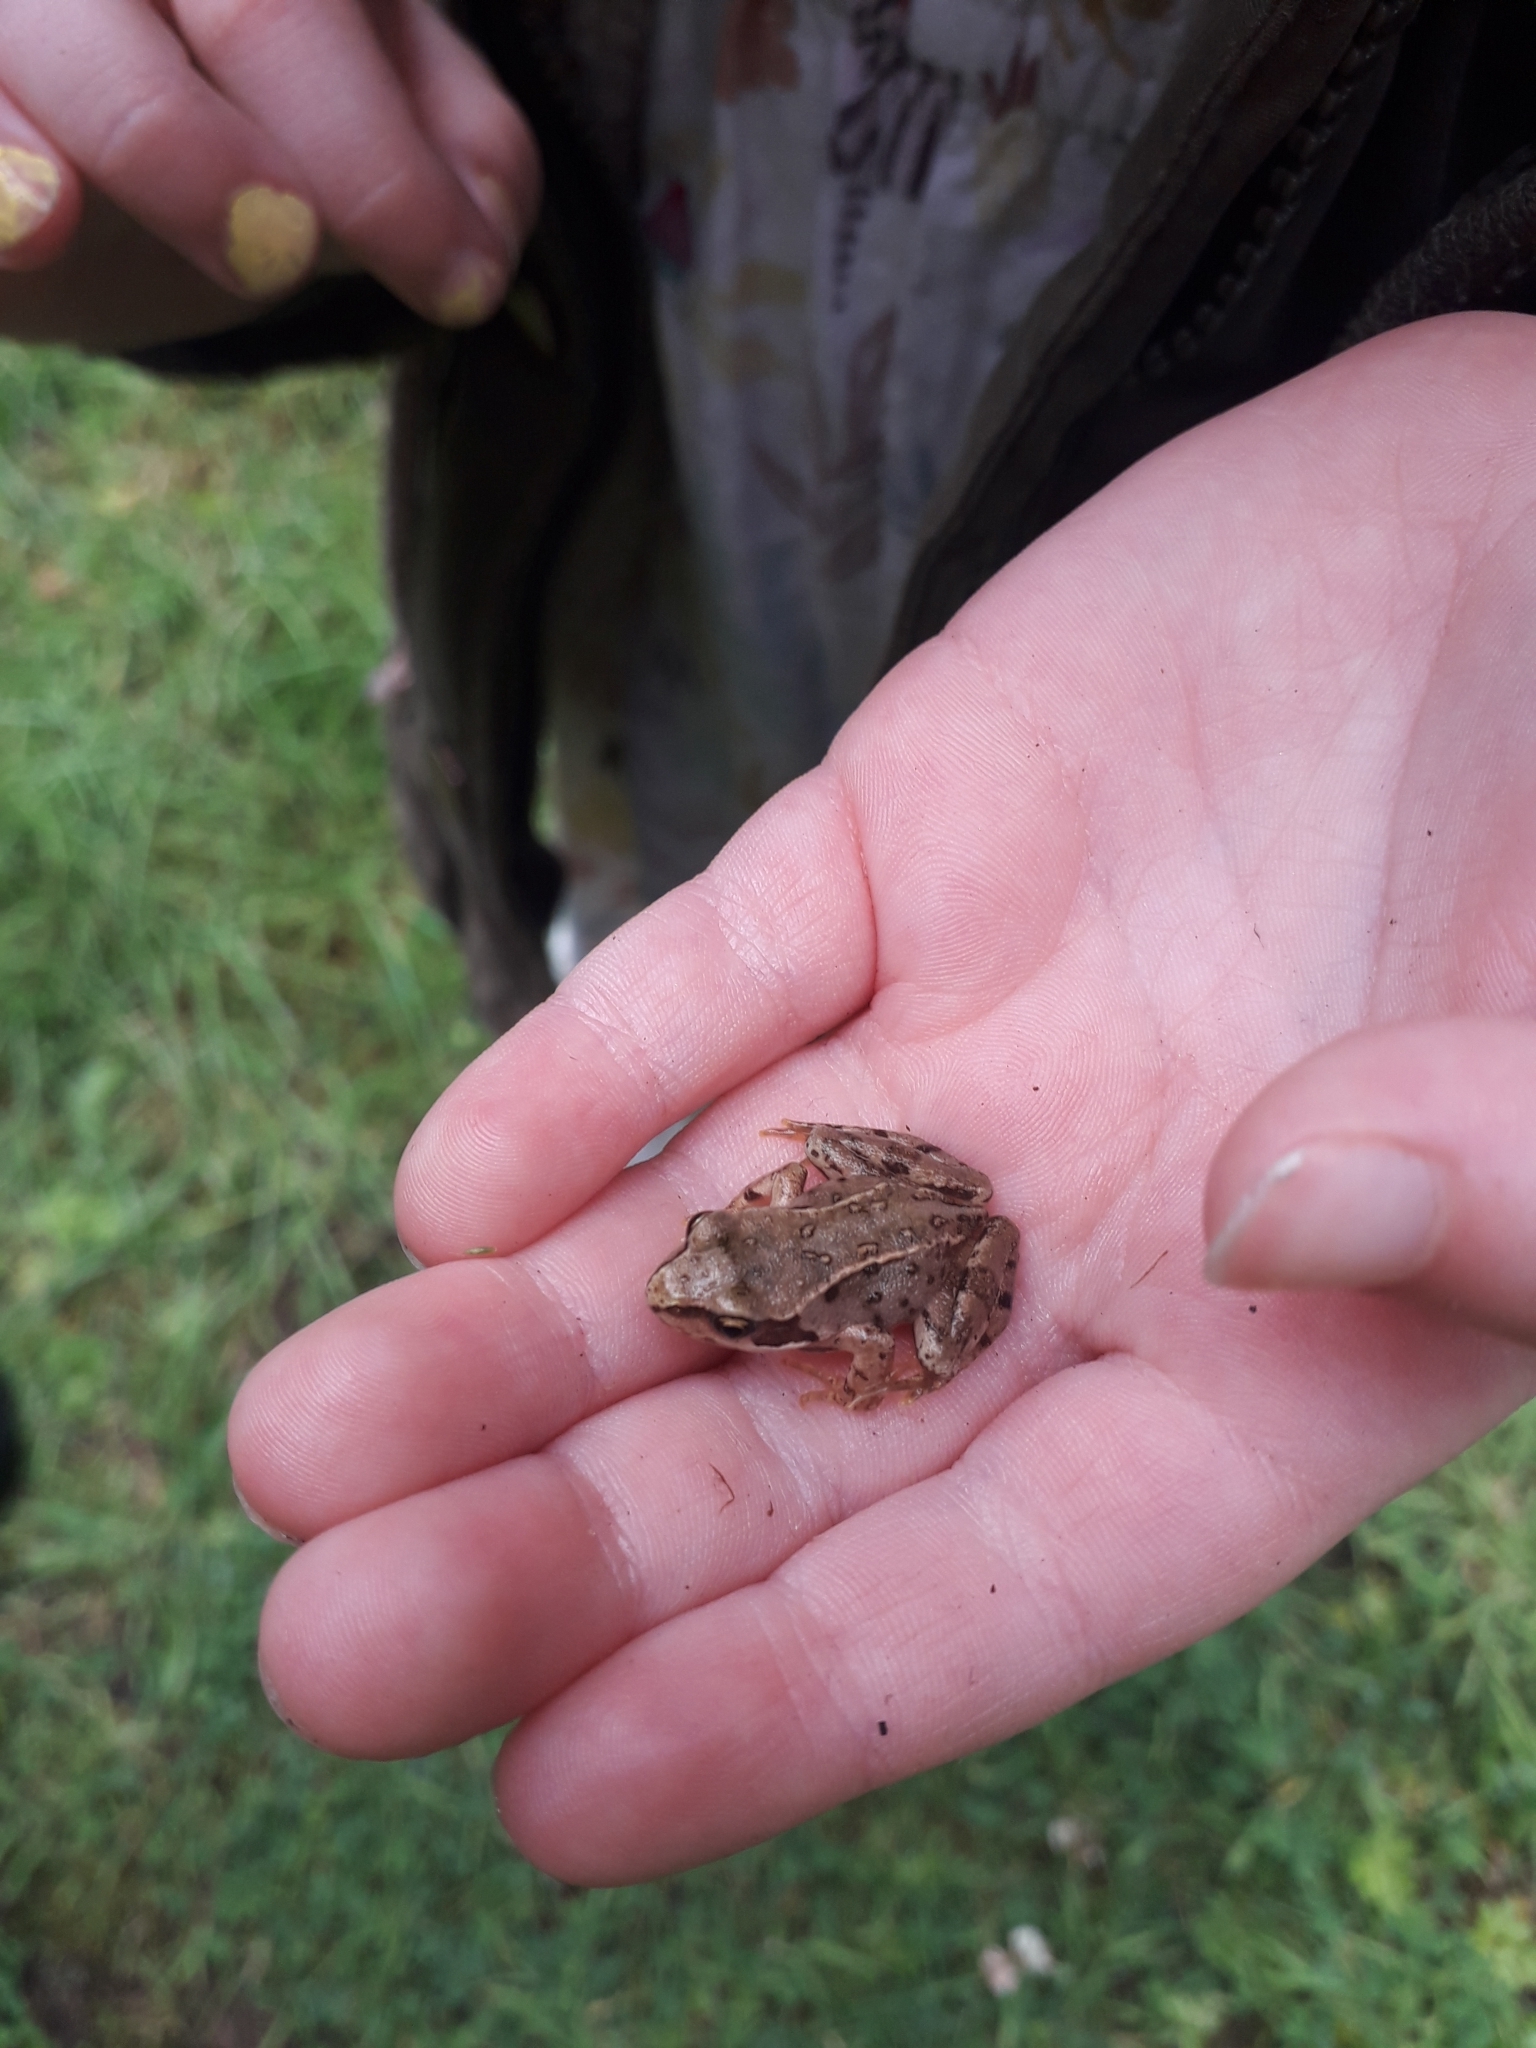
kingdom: Animalia
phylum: Chordata
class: Amphibia
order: Anura
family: Ranidae
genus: Rana
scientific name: Rana temporaria
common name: Common frog
